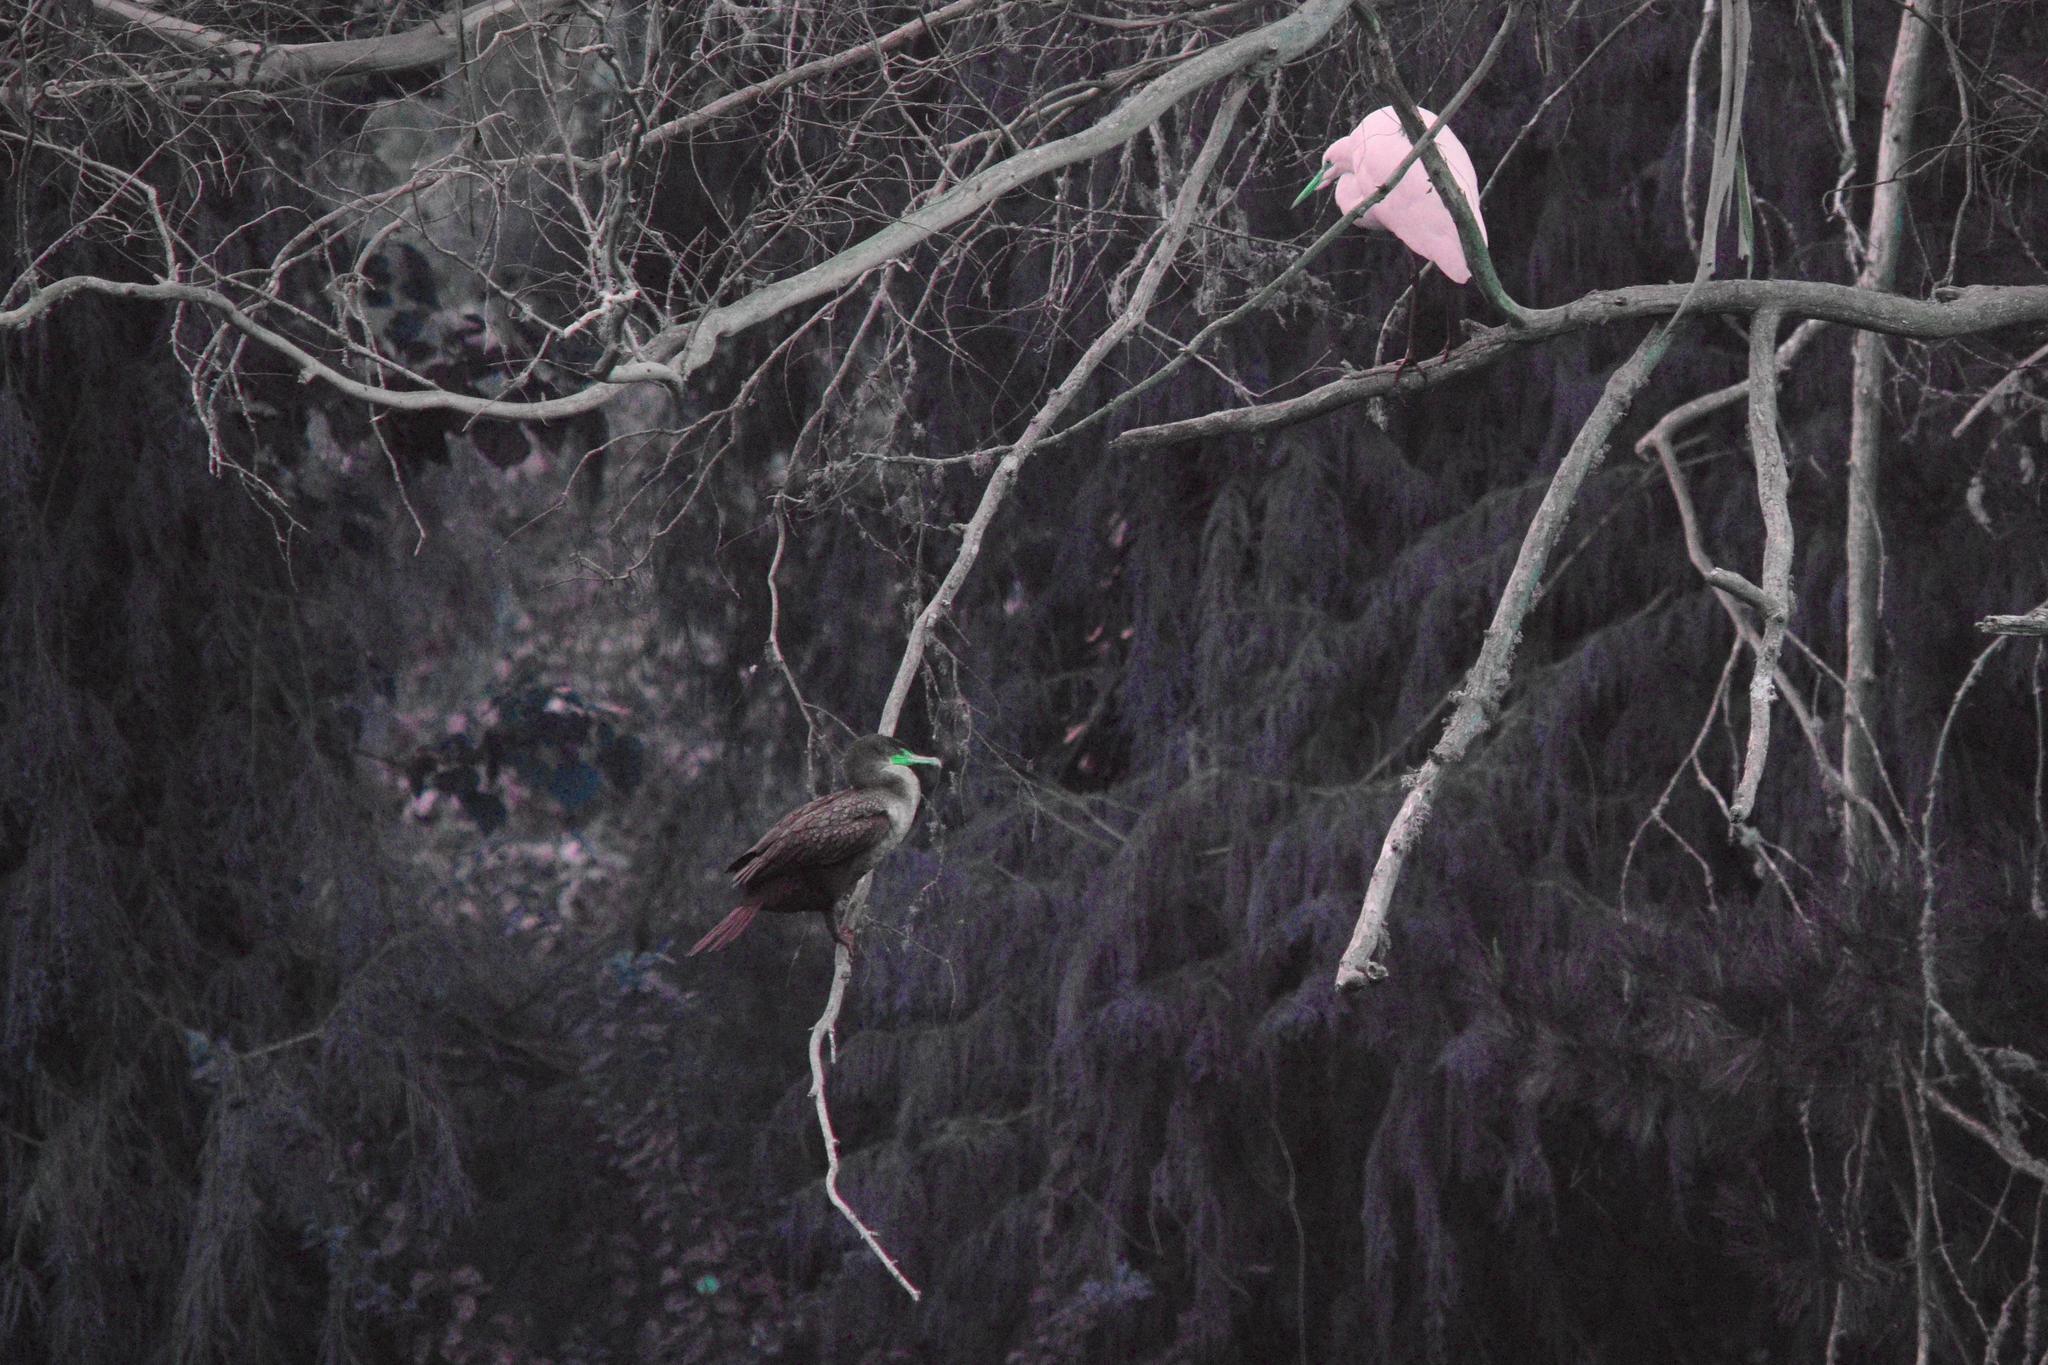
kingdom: Animalia
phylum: Chordata
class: Aves
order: Suliformes
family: Phalacrocoracidae
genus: Phalacrocorax
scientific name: Phalacrocorax auritus
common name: Double-crested cormorant
